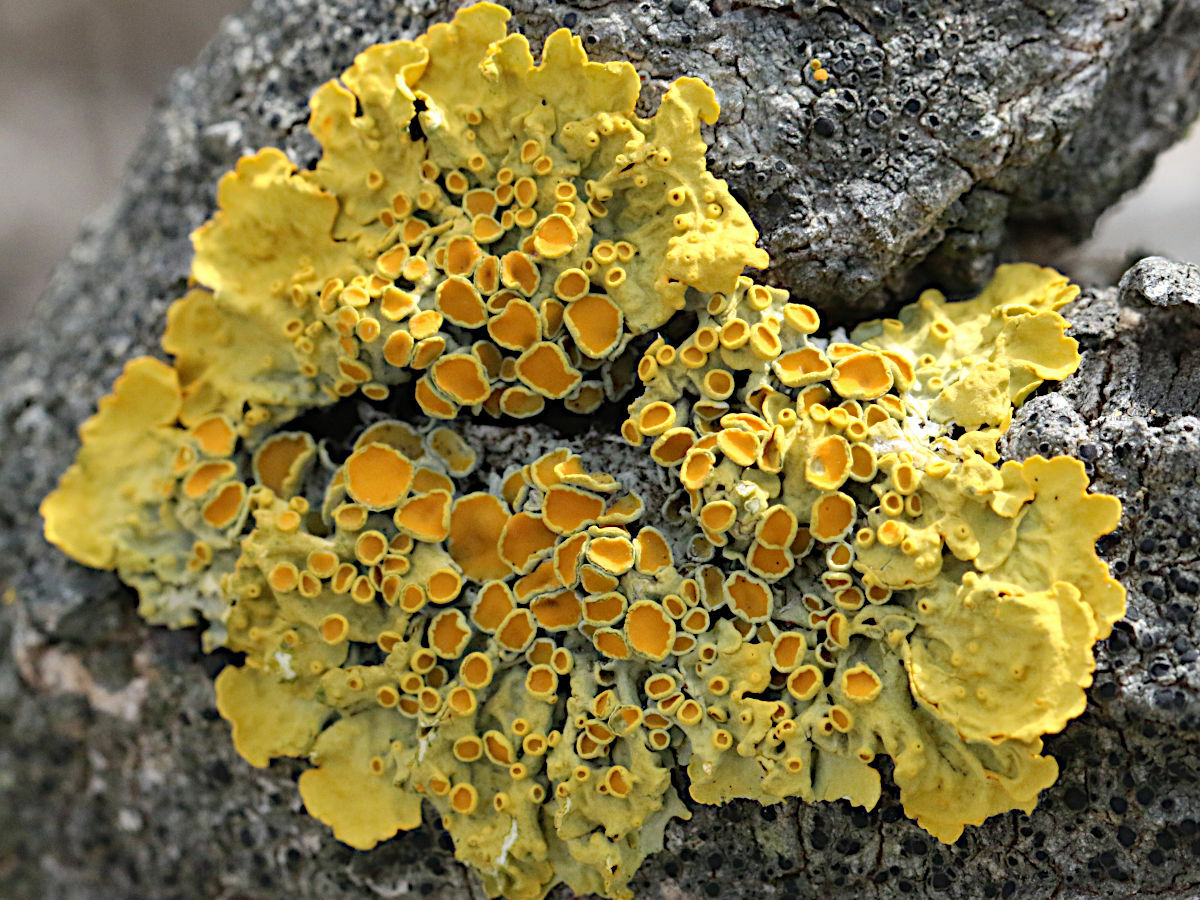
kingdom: Fungi
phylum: Ascomycota
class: Lecanoromycetes
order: Teloschistales
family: Teloschistaceae
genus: Xanthoria
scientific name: Xanthoria parietina
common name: Common orange lichen
